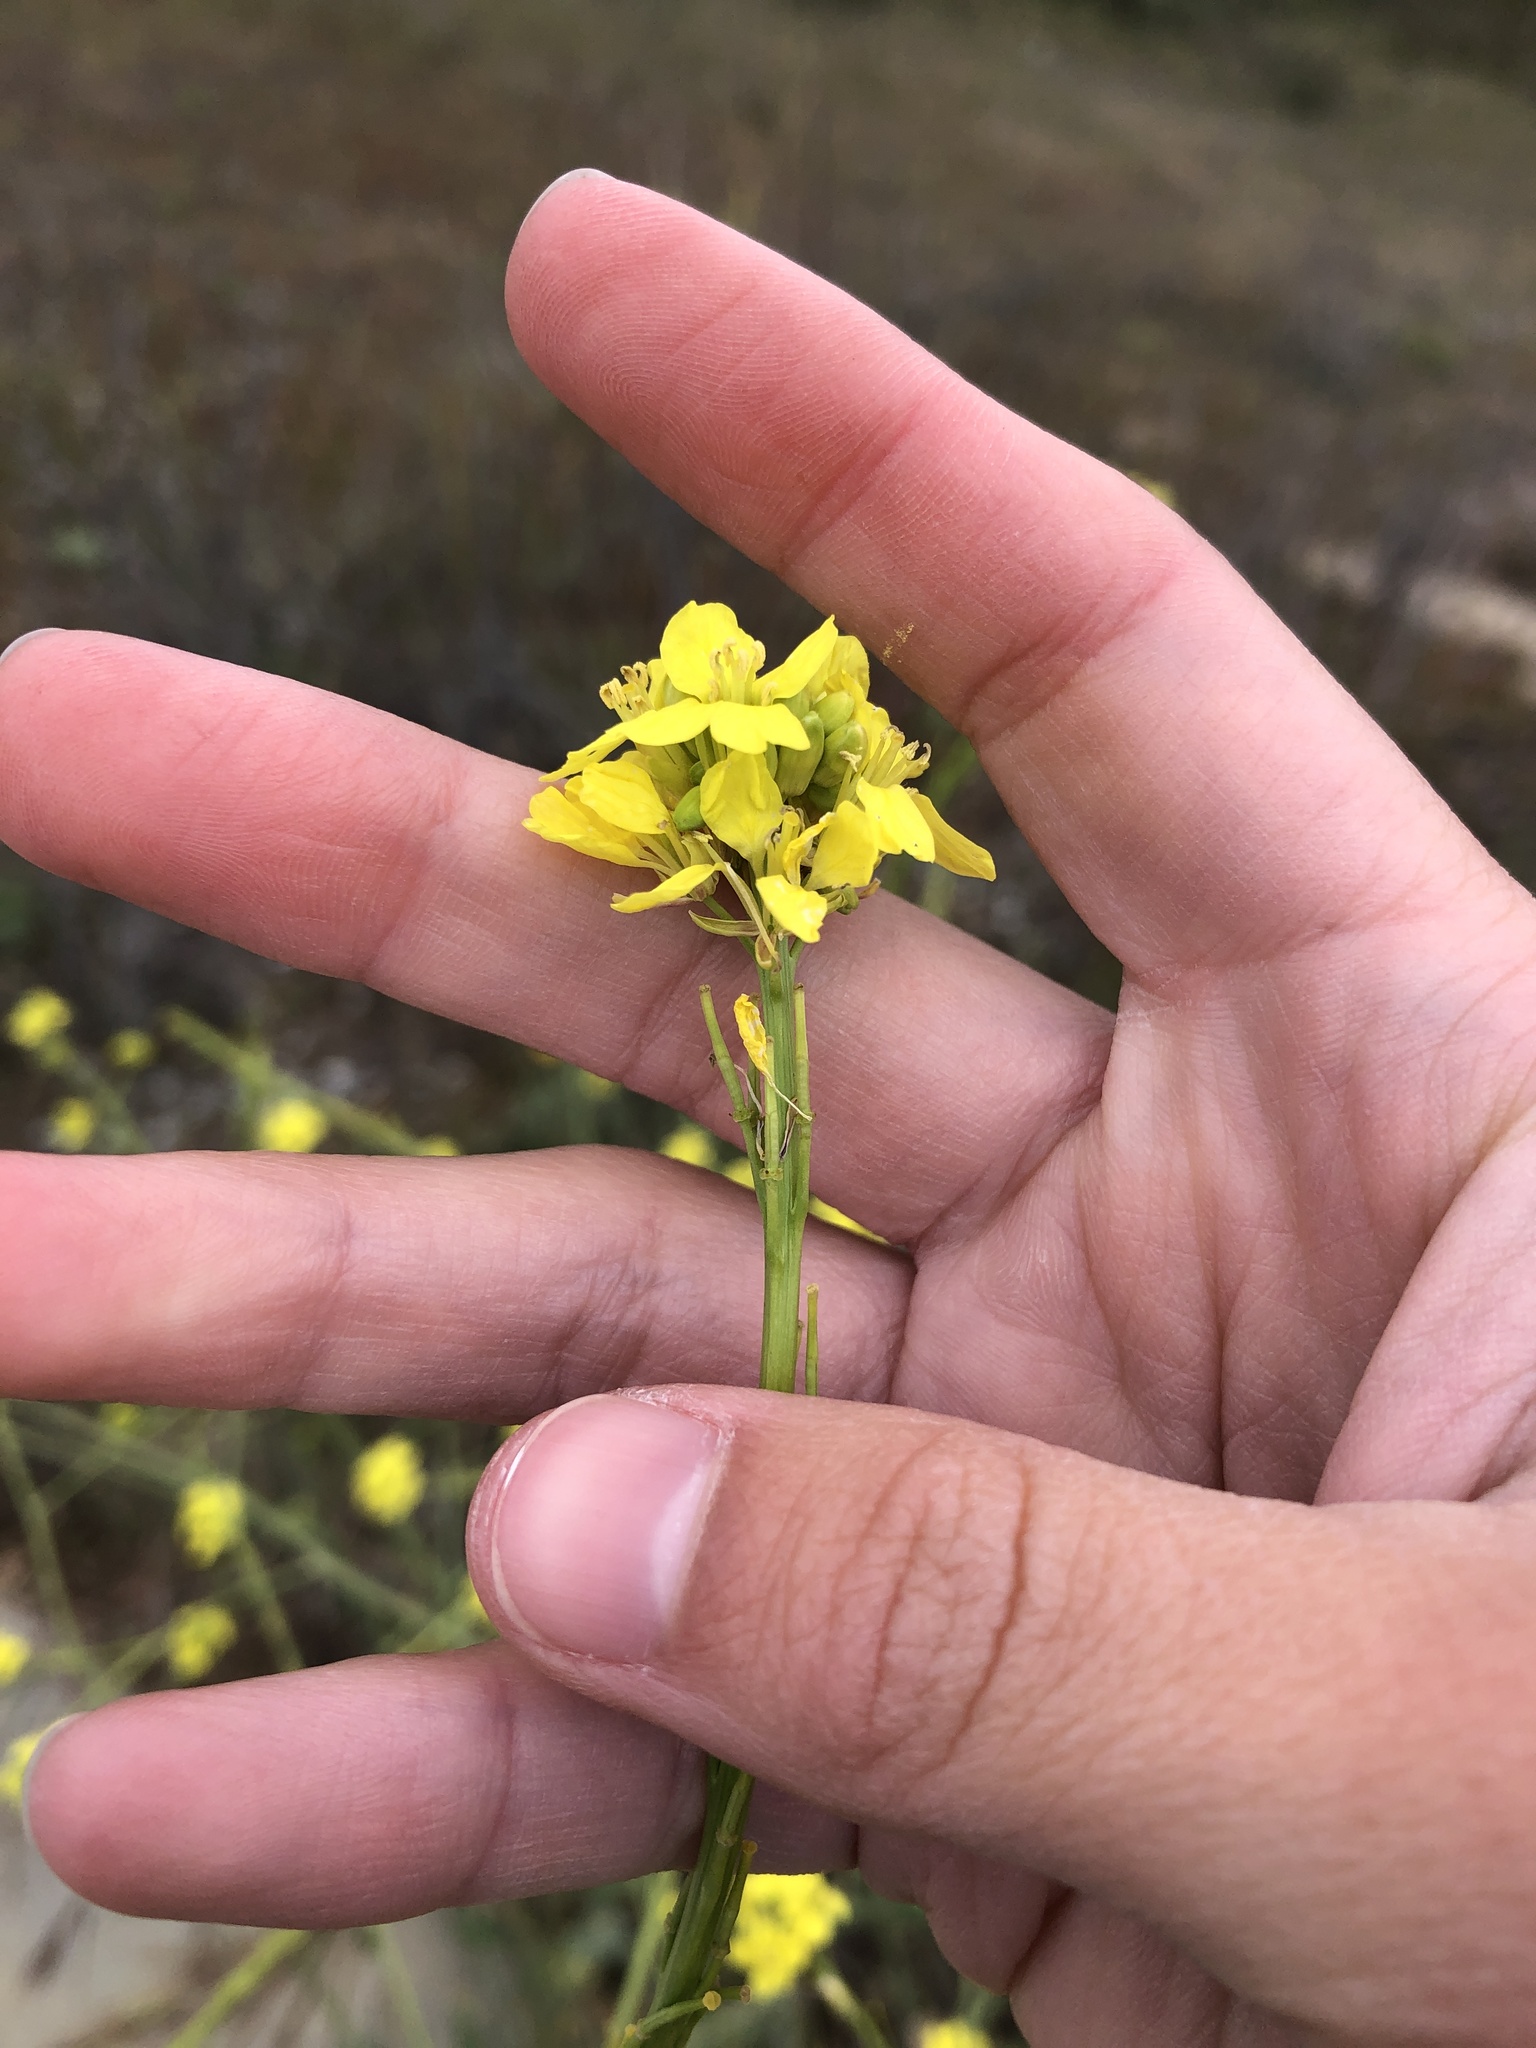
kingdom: Plantae
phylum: Tracheophyta
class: Magnoliopsida
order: Brassicales
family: Brassicaceae
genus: Hirschfeldia
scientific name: Hirschfeldia incana
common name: Hoary mustard
